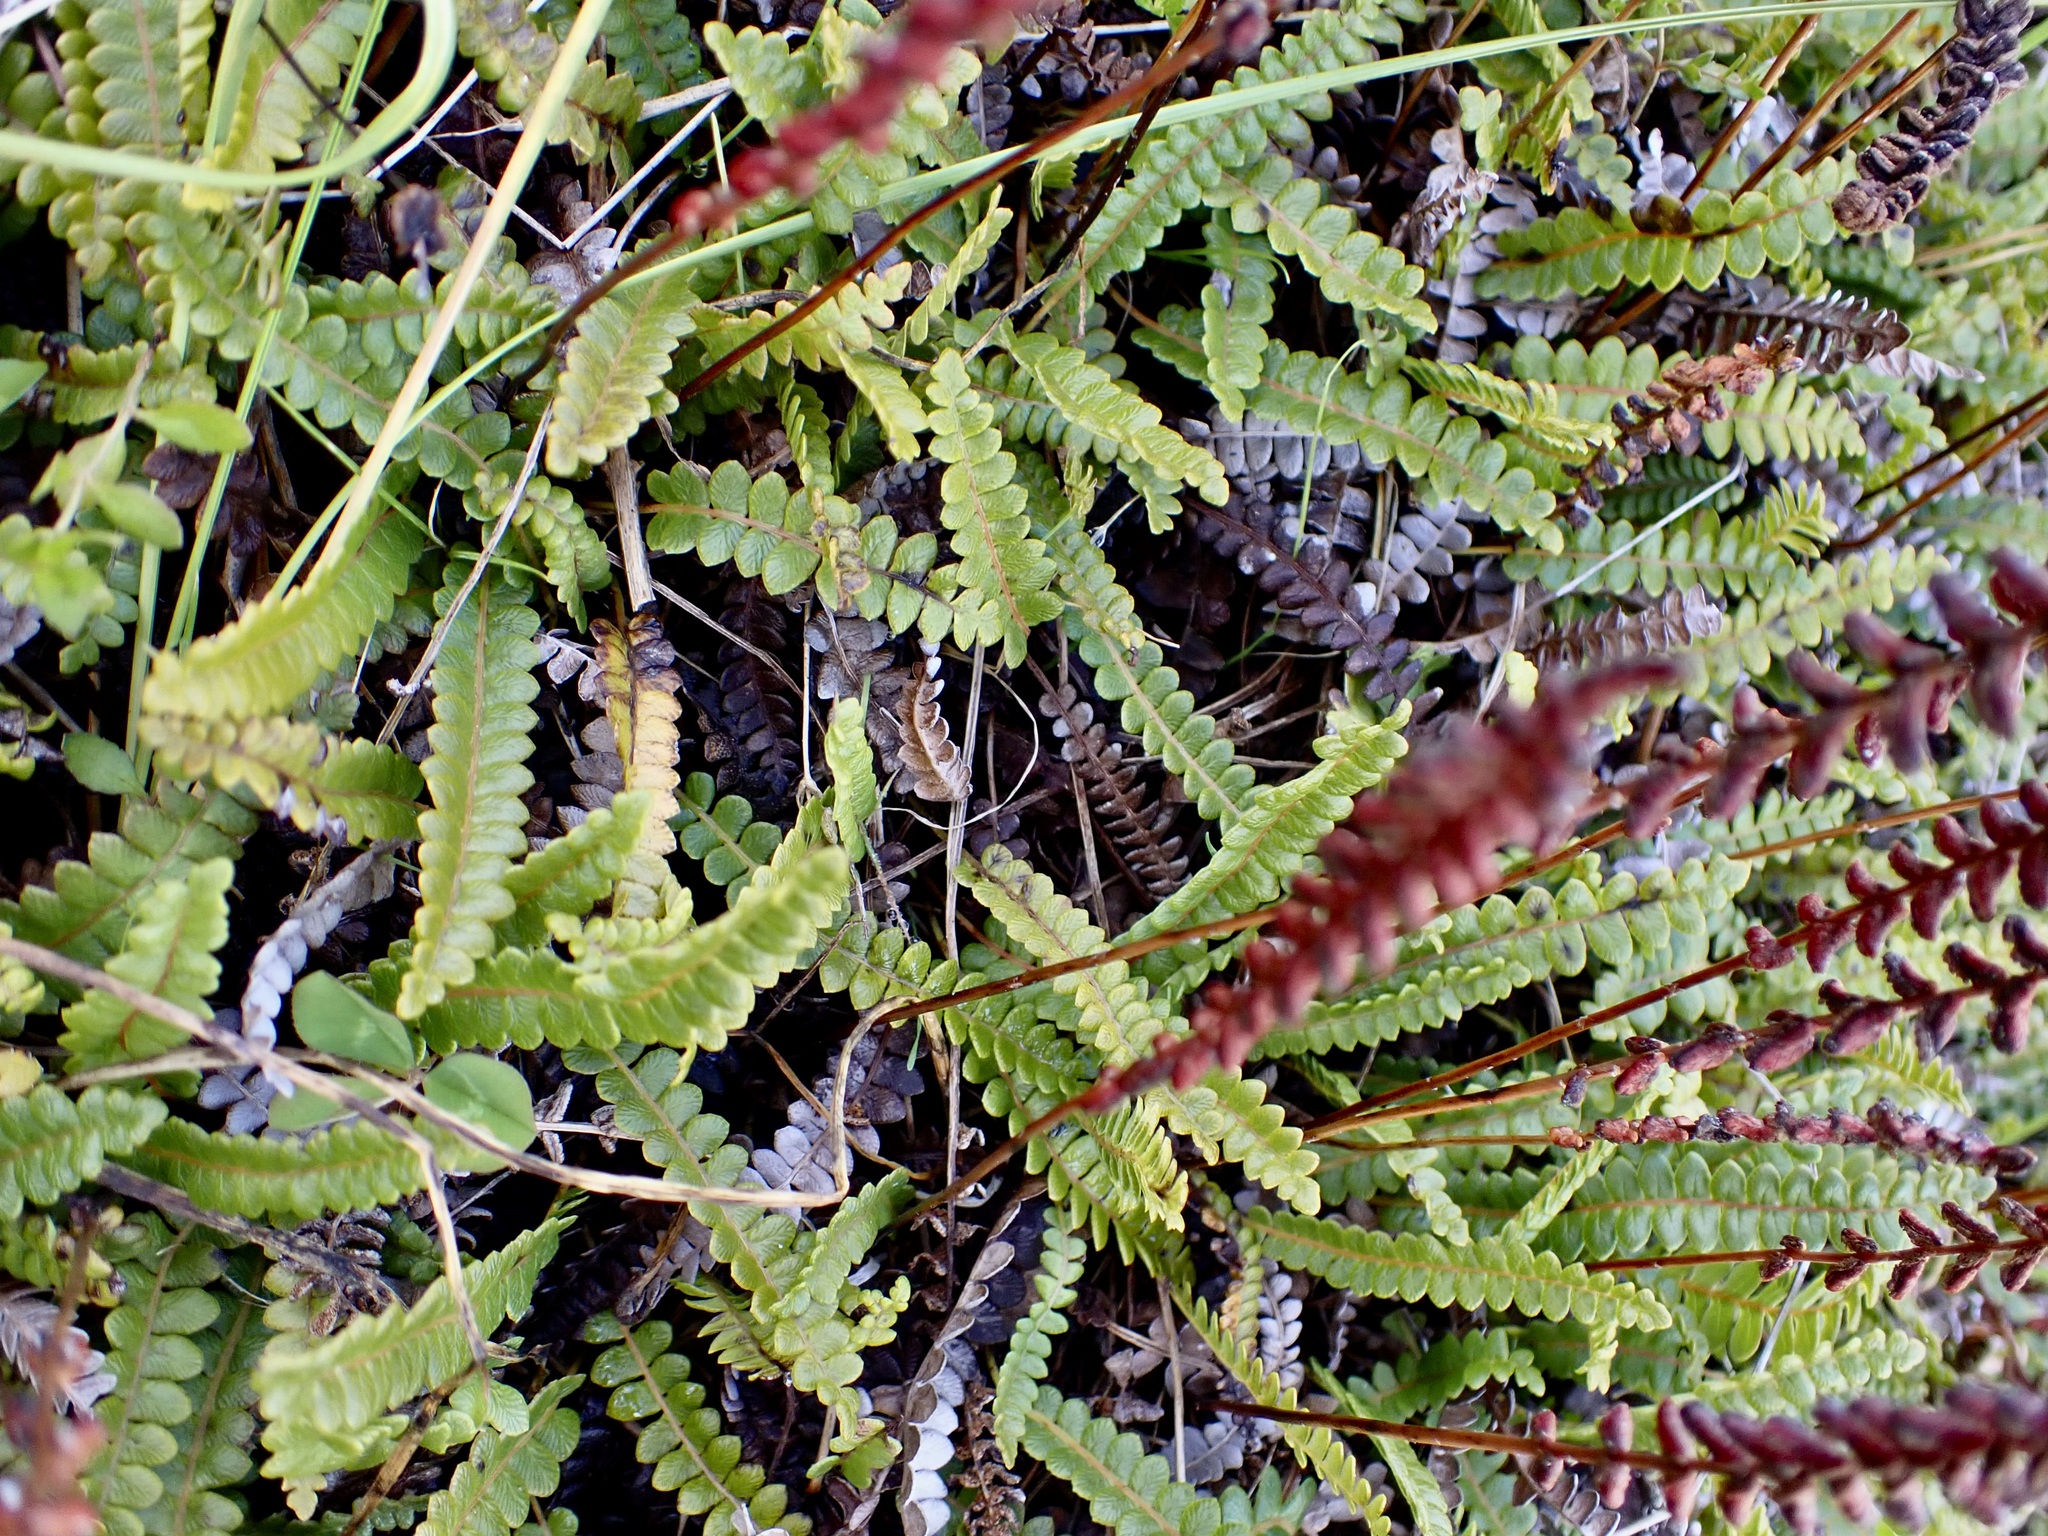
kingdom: Plantae
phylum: Tracheophyta
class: Polypodiopsida
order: Polypodiales
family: Blechnaceae
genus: Austroblechnum
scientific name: Austroblechnum penna-marina
